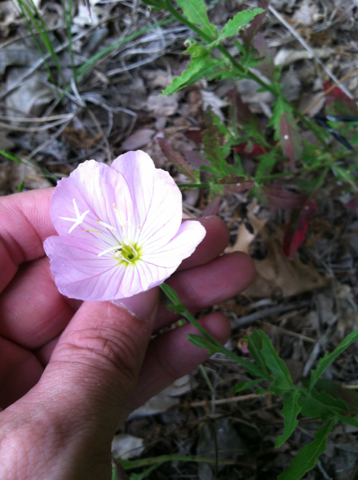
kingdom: Plantae
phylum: Tracheophyta
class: Magnoliopsida
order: Myrtales
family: Onagraceae
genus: Oenothera
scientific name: Oenothera speciosa
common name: White evening-primrose
